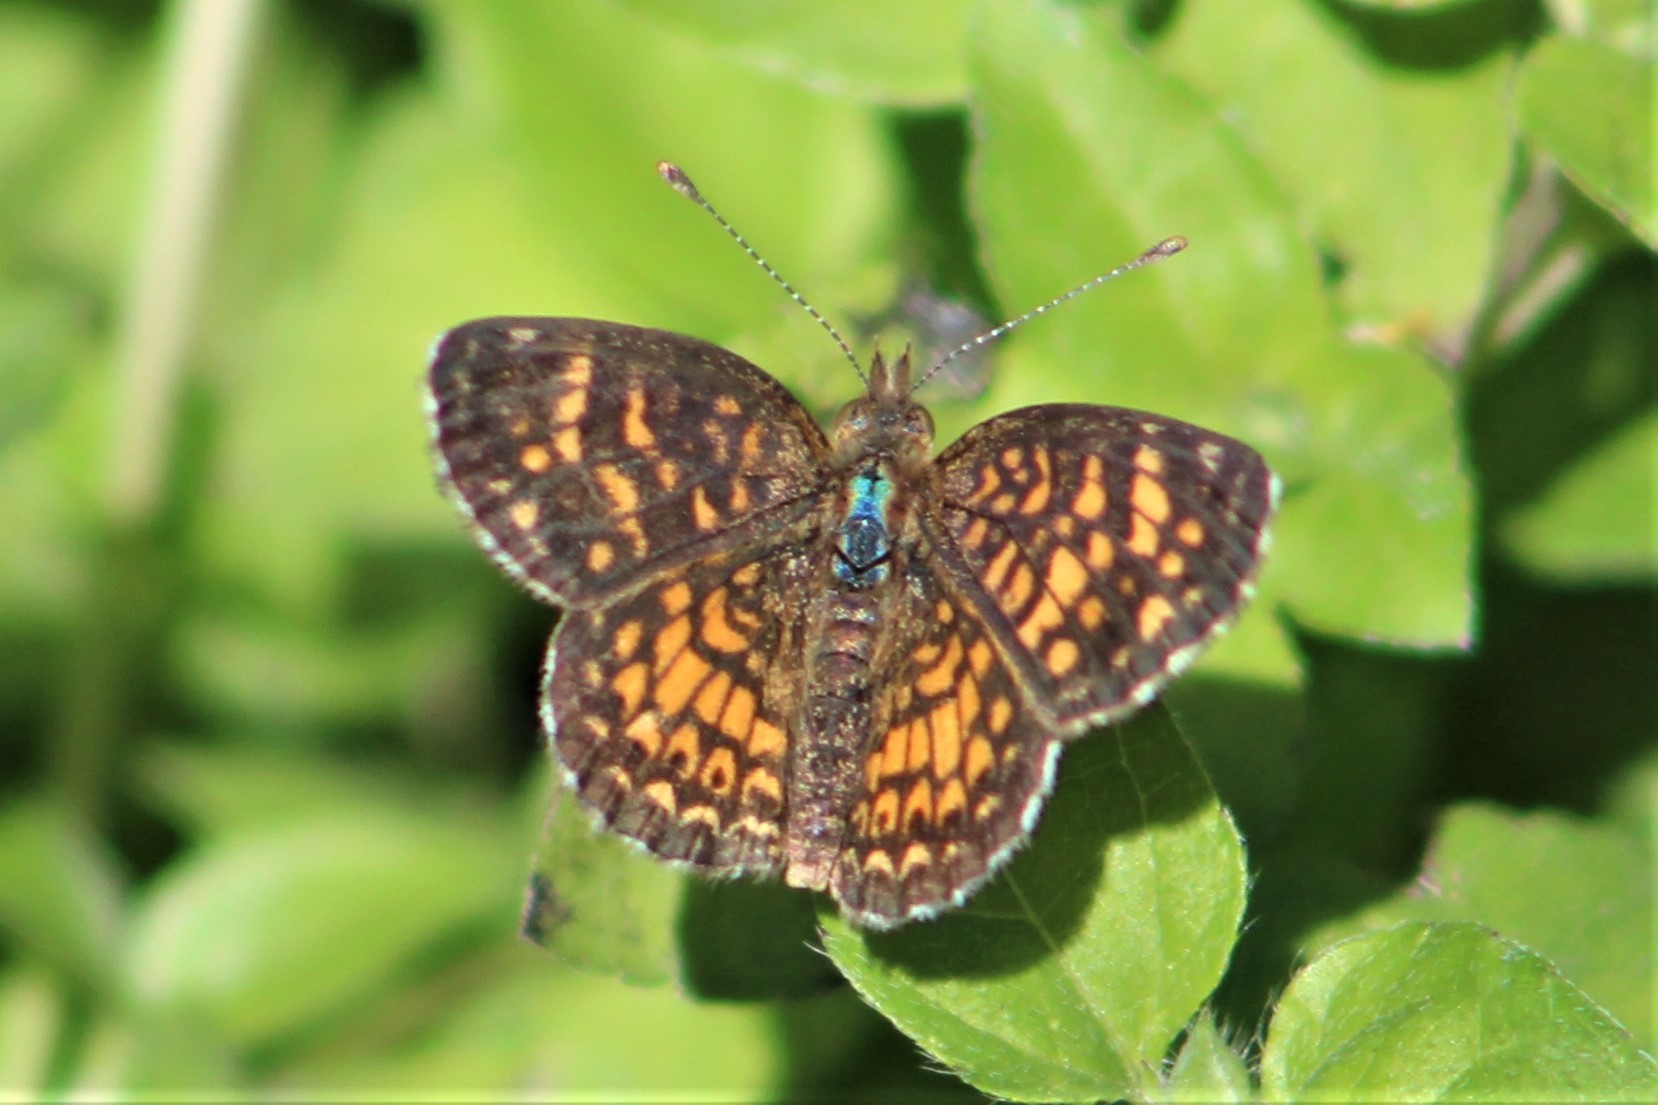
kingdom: Animalia
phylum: Arthropoda
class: Insecta
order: Lepidoptera
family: Nymphalidae
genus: Phyciodes
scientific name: Phyciodes vesta
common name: Vesta crescent
